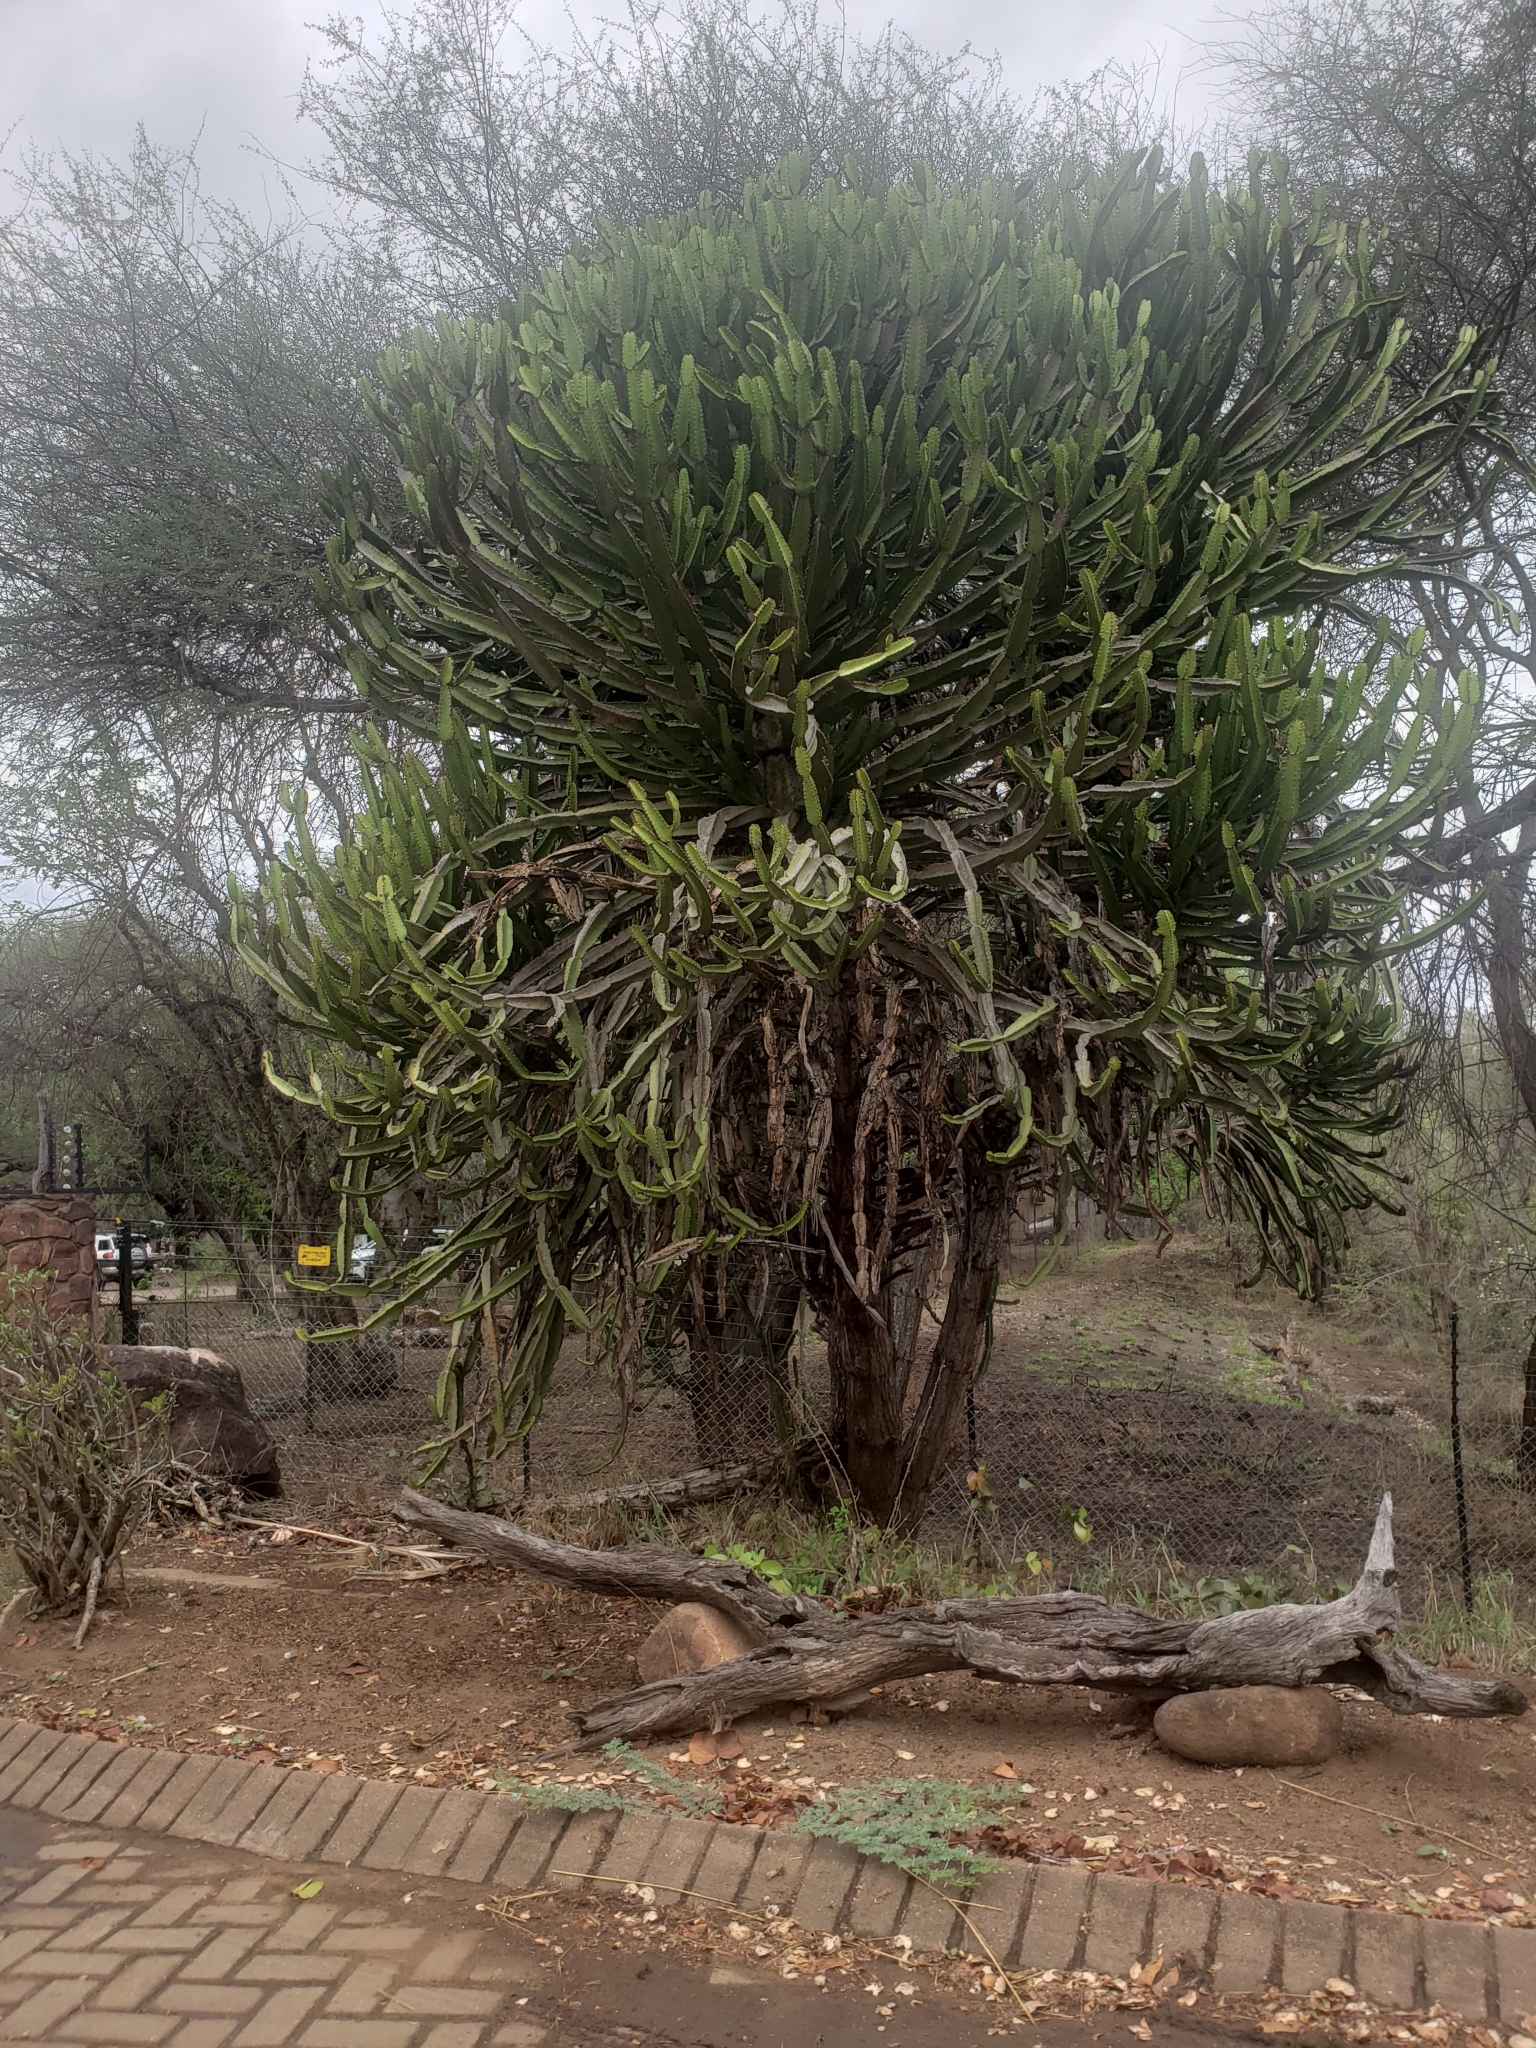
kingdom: Plantae
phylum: Tracheophyta
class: Magnoliopsida
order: Malpighiales
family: Euphorbiaceae
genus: Euphorbia
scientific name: Euphorbia confinalis
